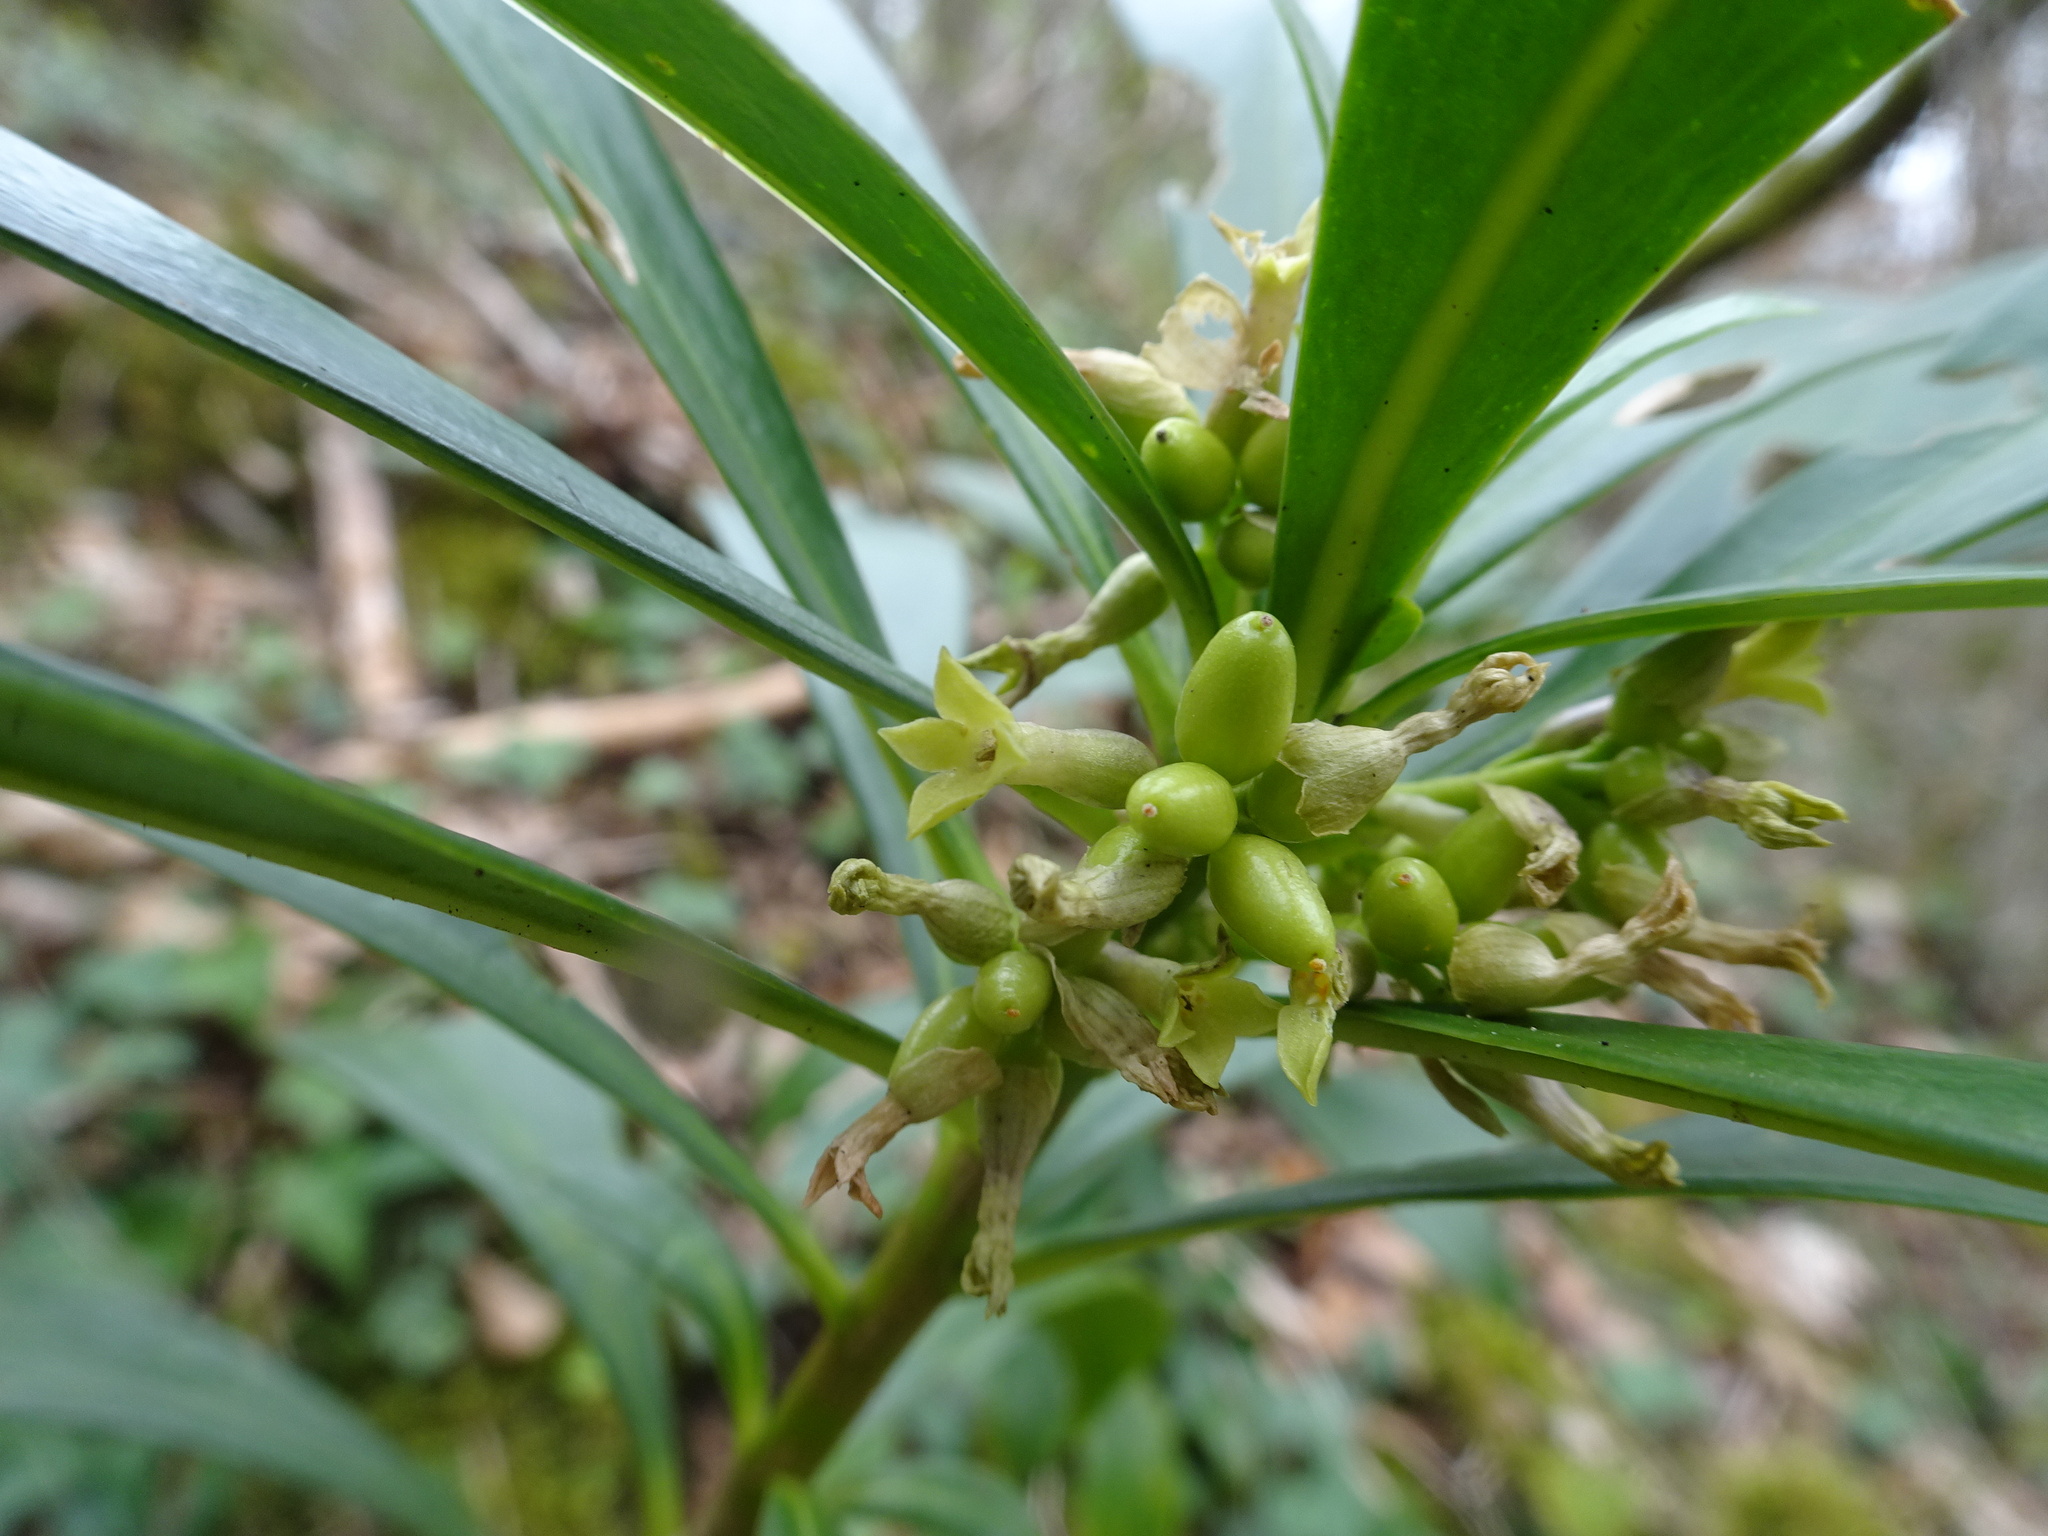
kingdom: Plantae
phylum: Tracheophyta
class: Magnoliopsida
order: Malvales
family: Thymelaeaceae
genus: Daphne
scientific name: Daphne laureola
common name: Spurge-laurel
